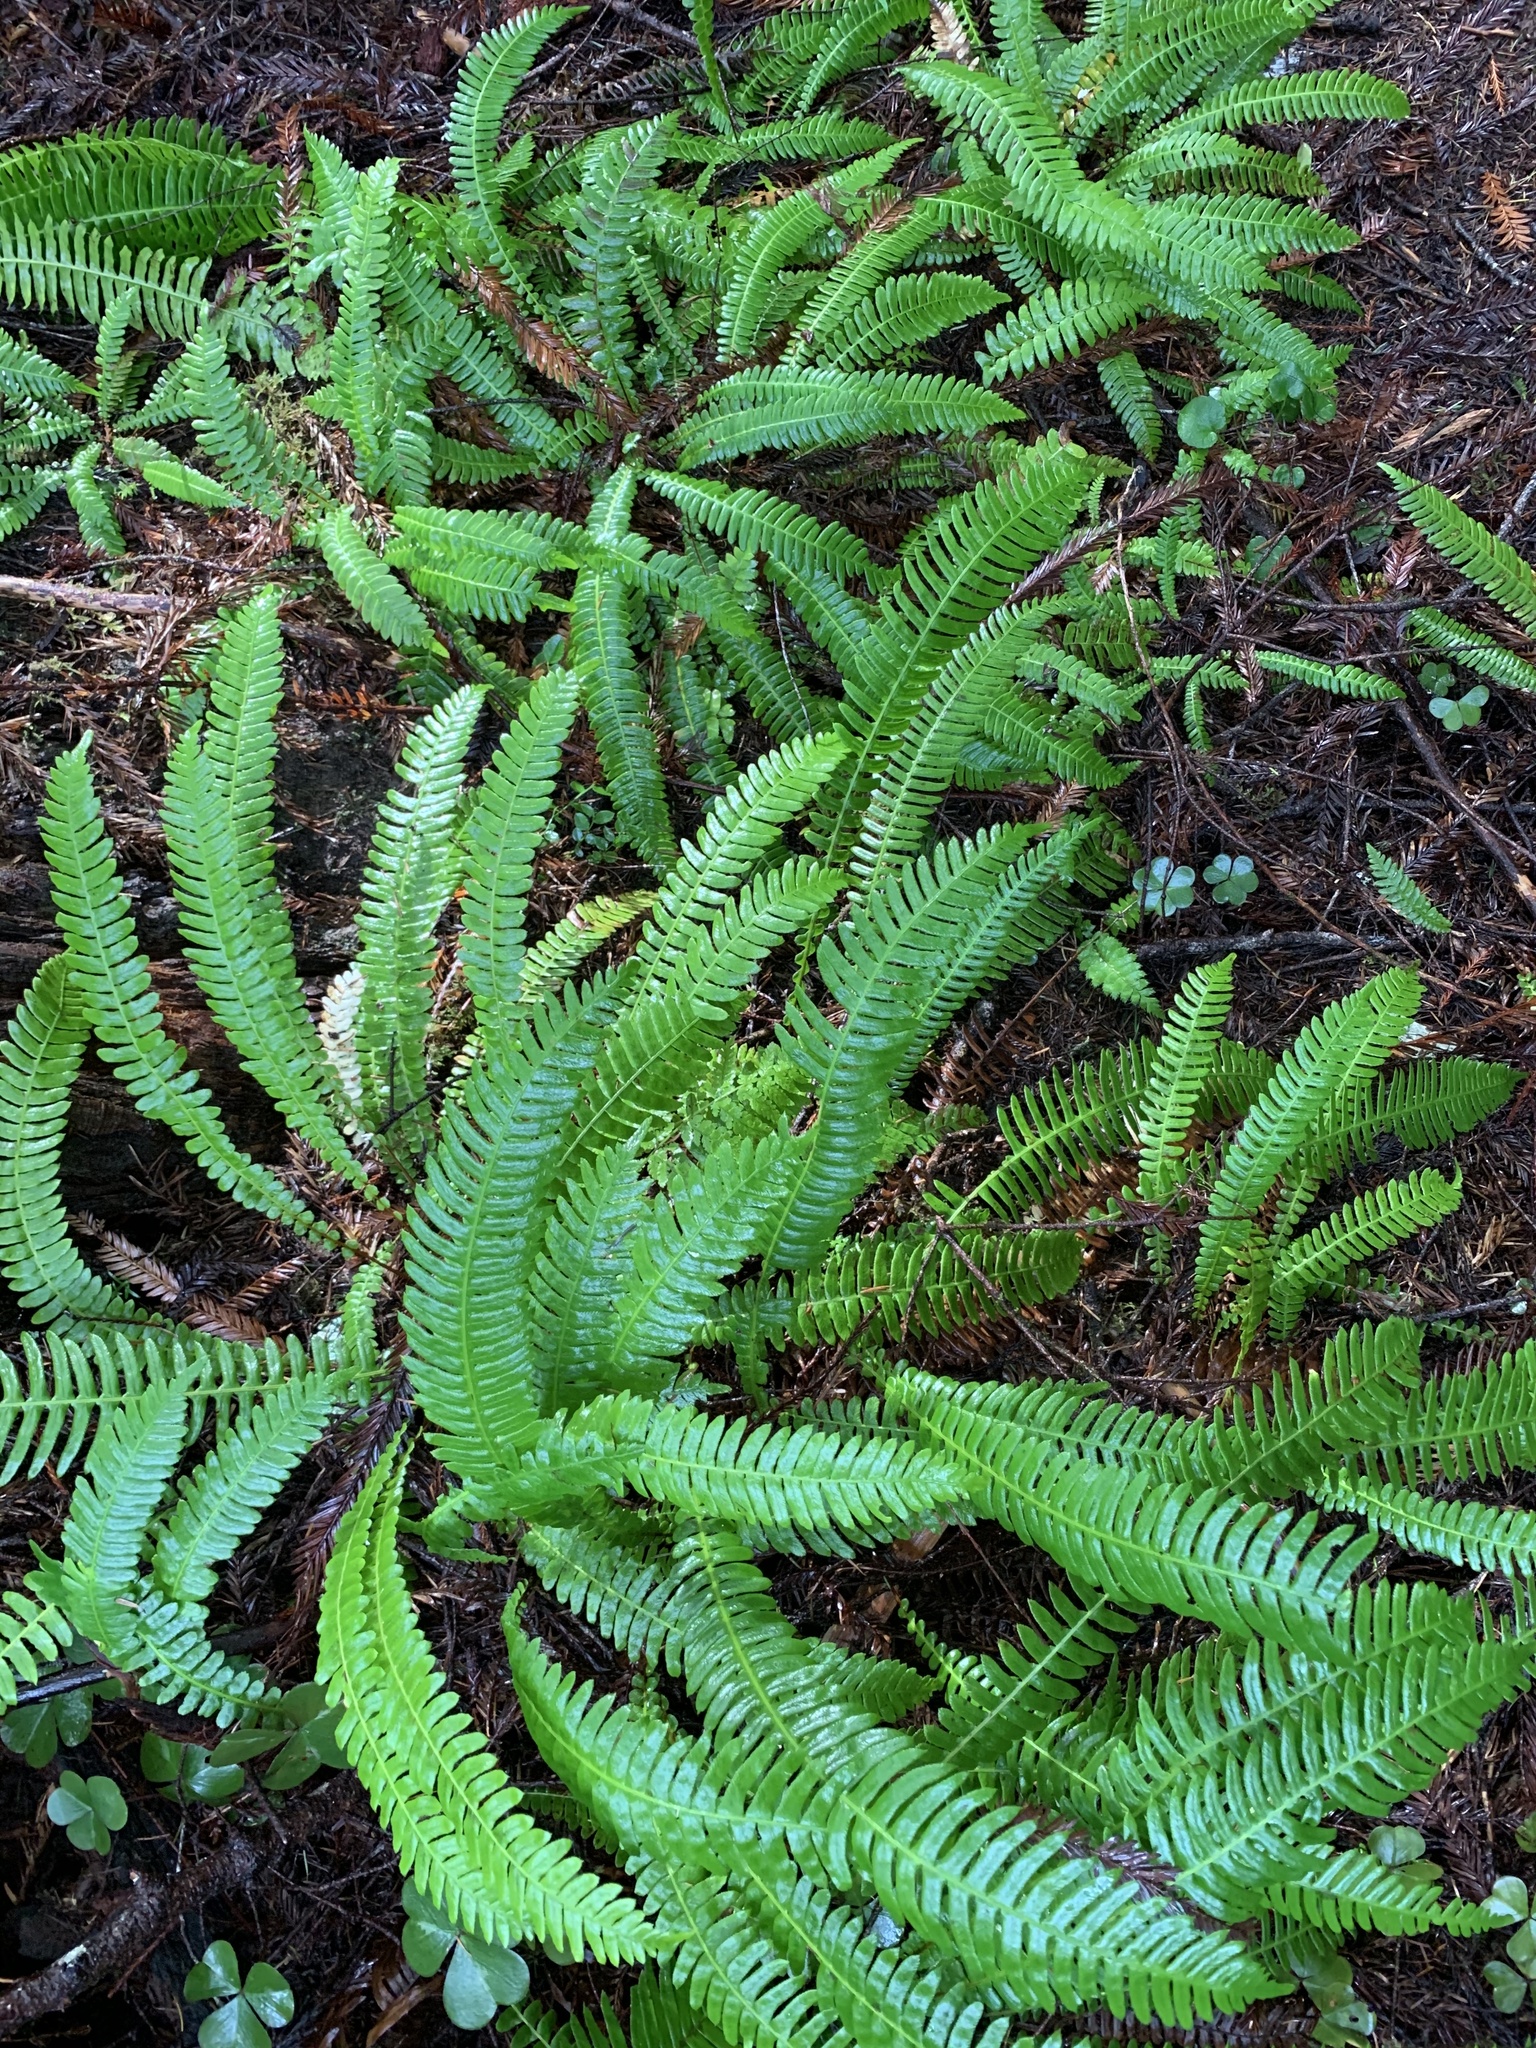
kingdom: Plantae
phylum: Tracheophyta
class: Polypodiopsida
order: Polypodiales
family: Blechnaceae
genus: Struthiopteris
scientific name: Struthiopteris spicant
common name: Deer fern
